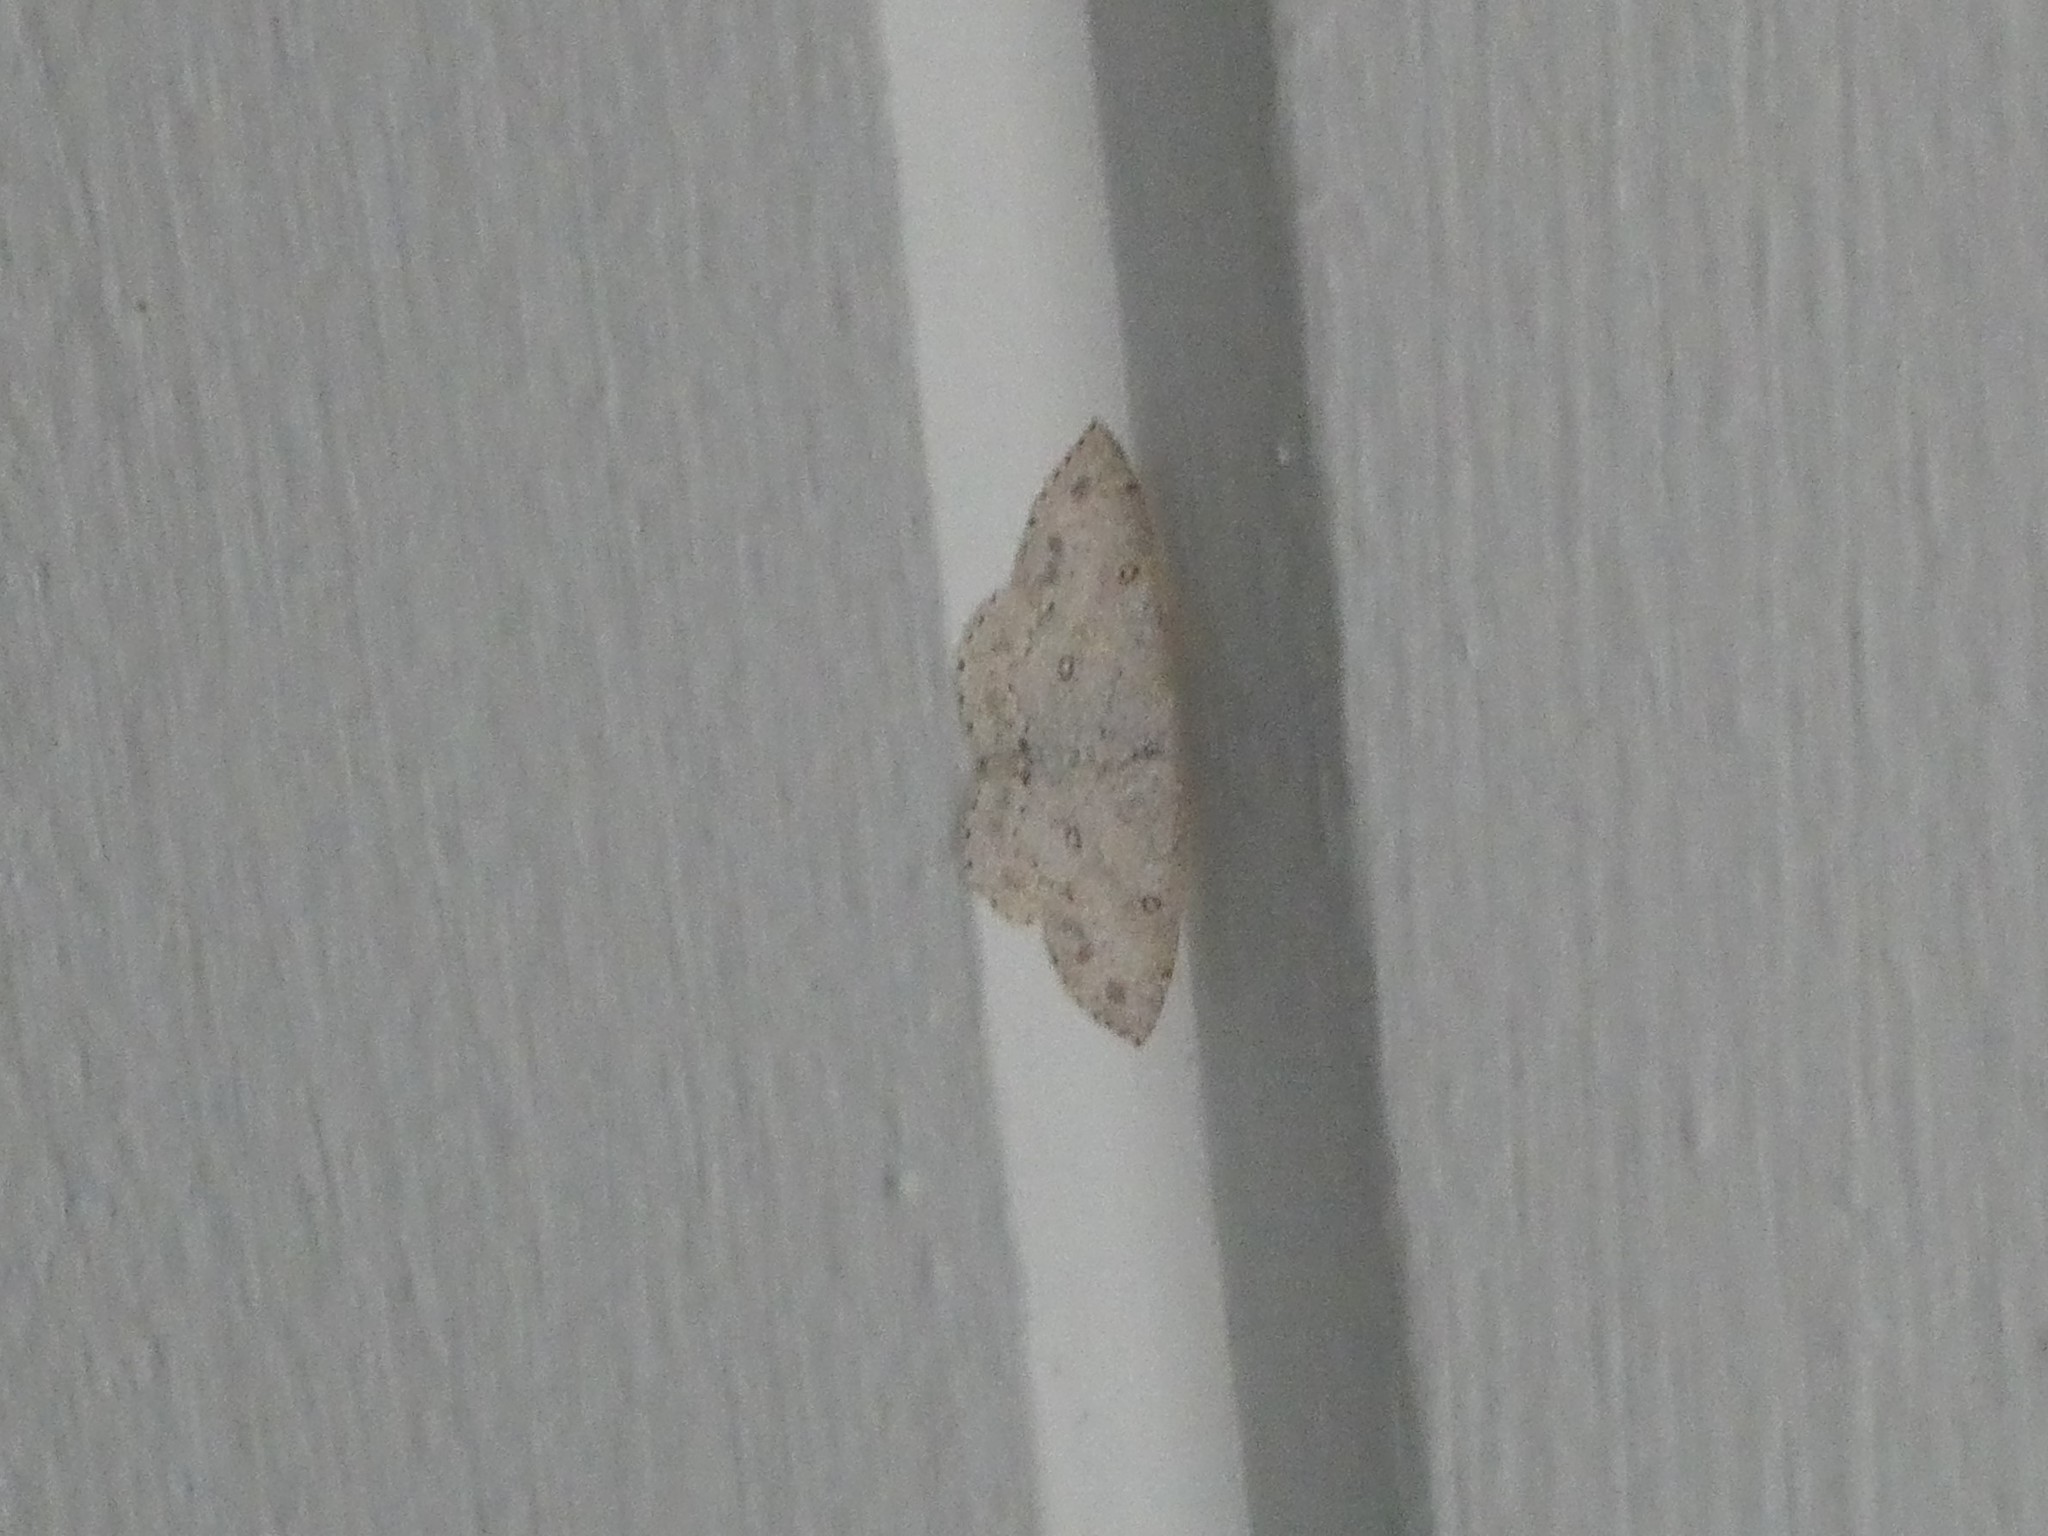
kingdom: Animalia
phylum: Arthropoda
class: Insecta
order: Lepidoptera
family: Geometridae
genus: Cyclophora
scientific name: Cyclophora pendulinaria
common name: Sweet fern geometer
